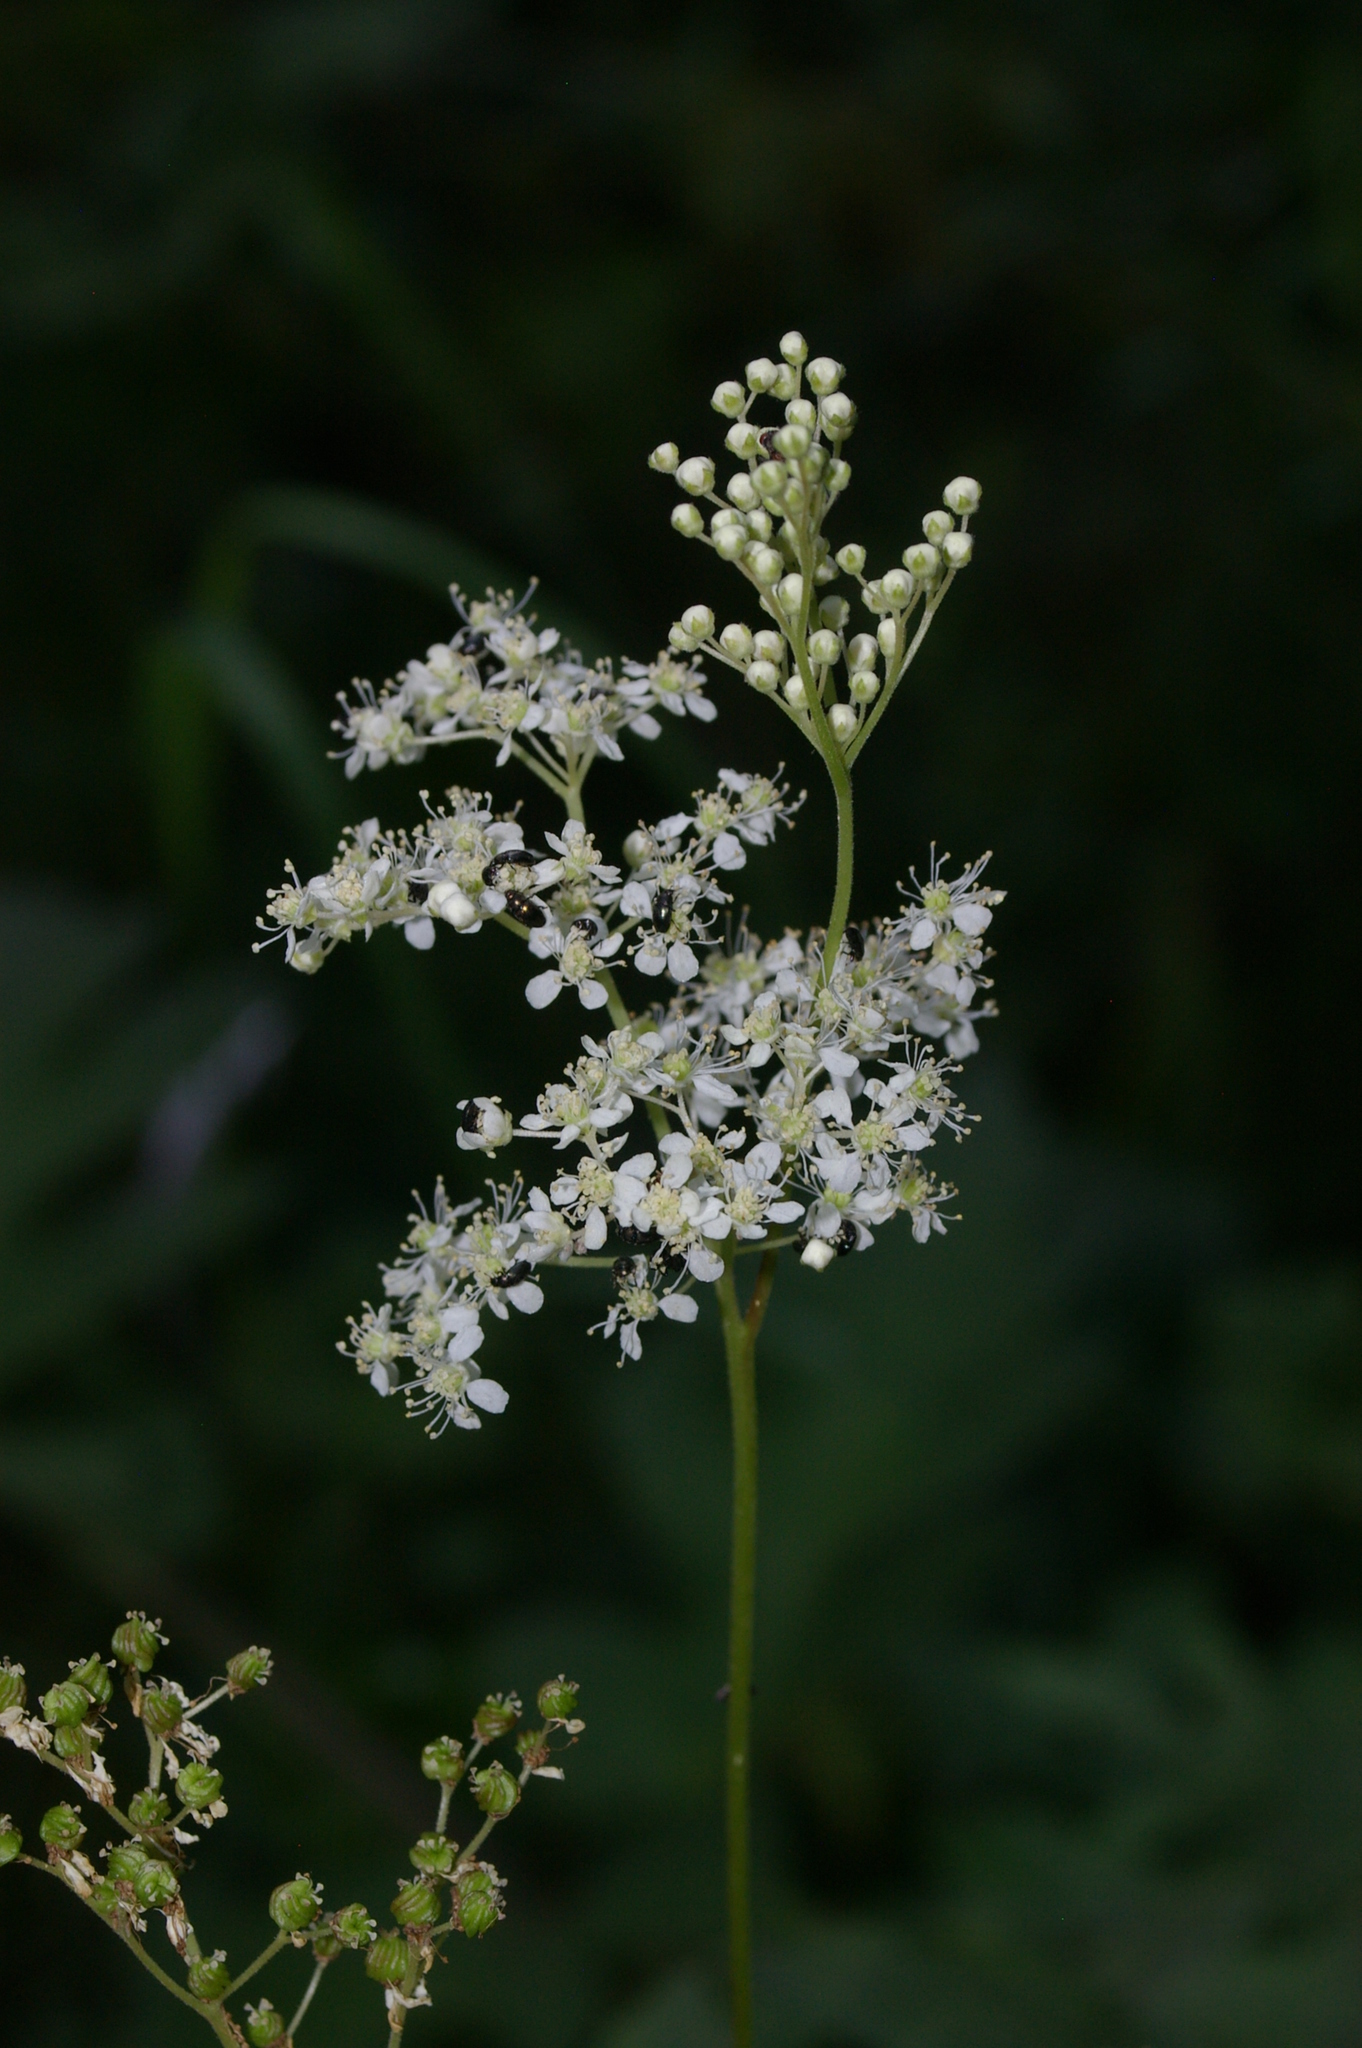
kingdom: Plantae
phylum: Tracheophyta
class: Magnoliopsida
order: Rosales
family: Rosaceae
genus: Filipendula
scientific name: Filipendula ulmaria
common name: Meadowsweet
